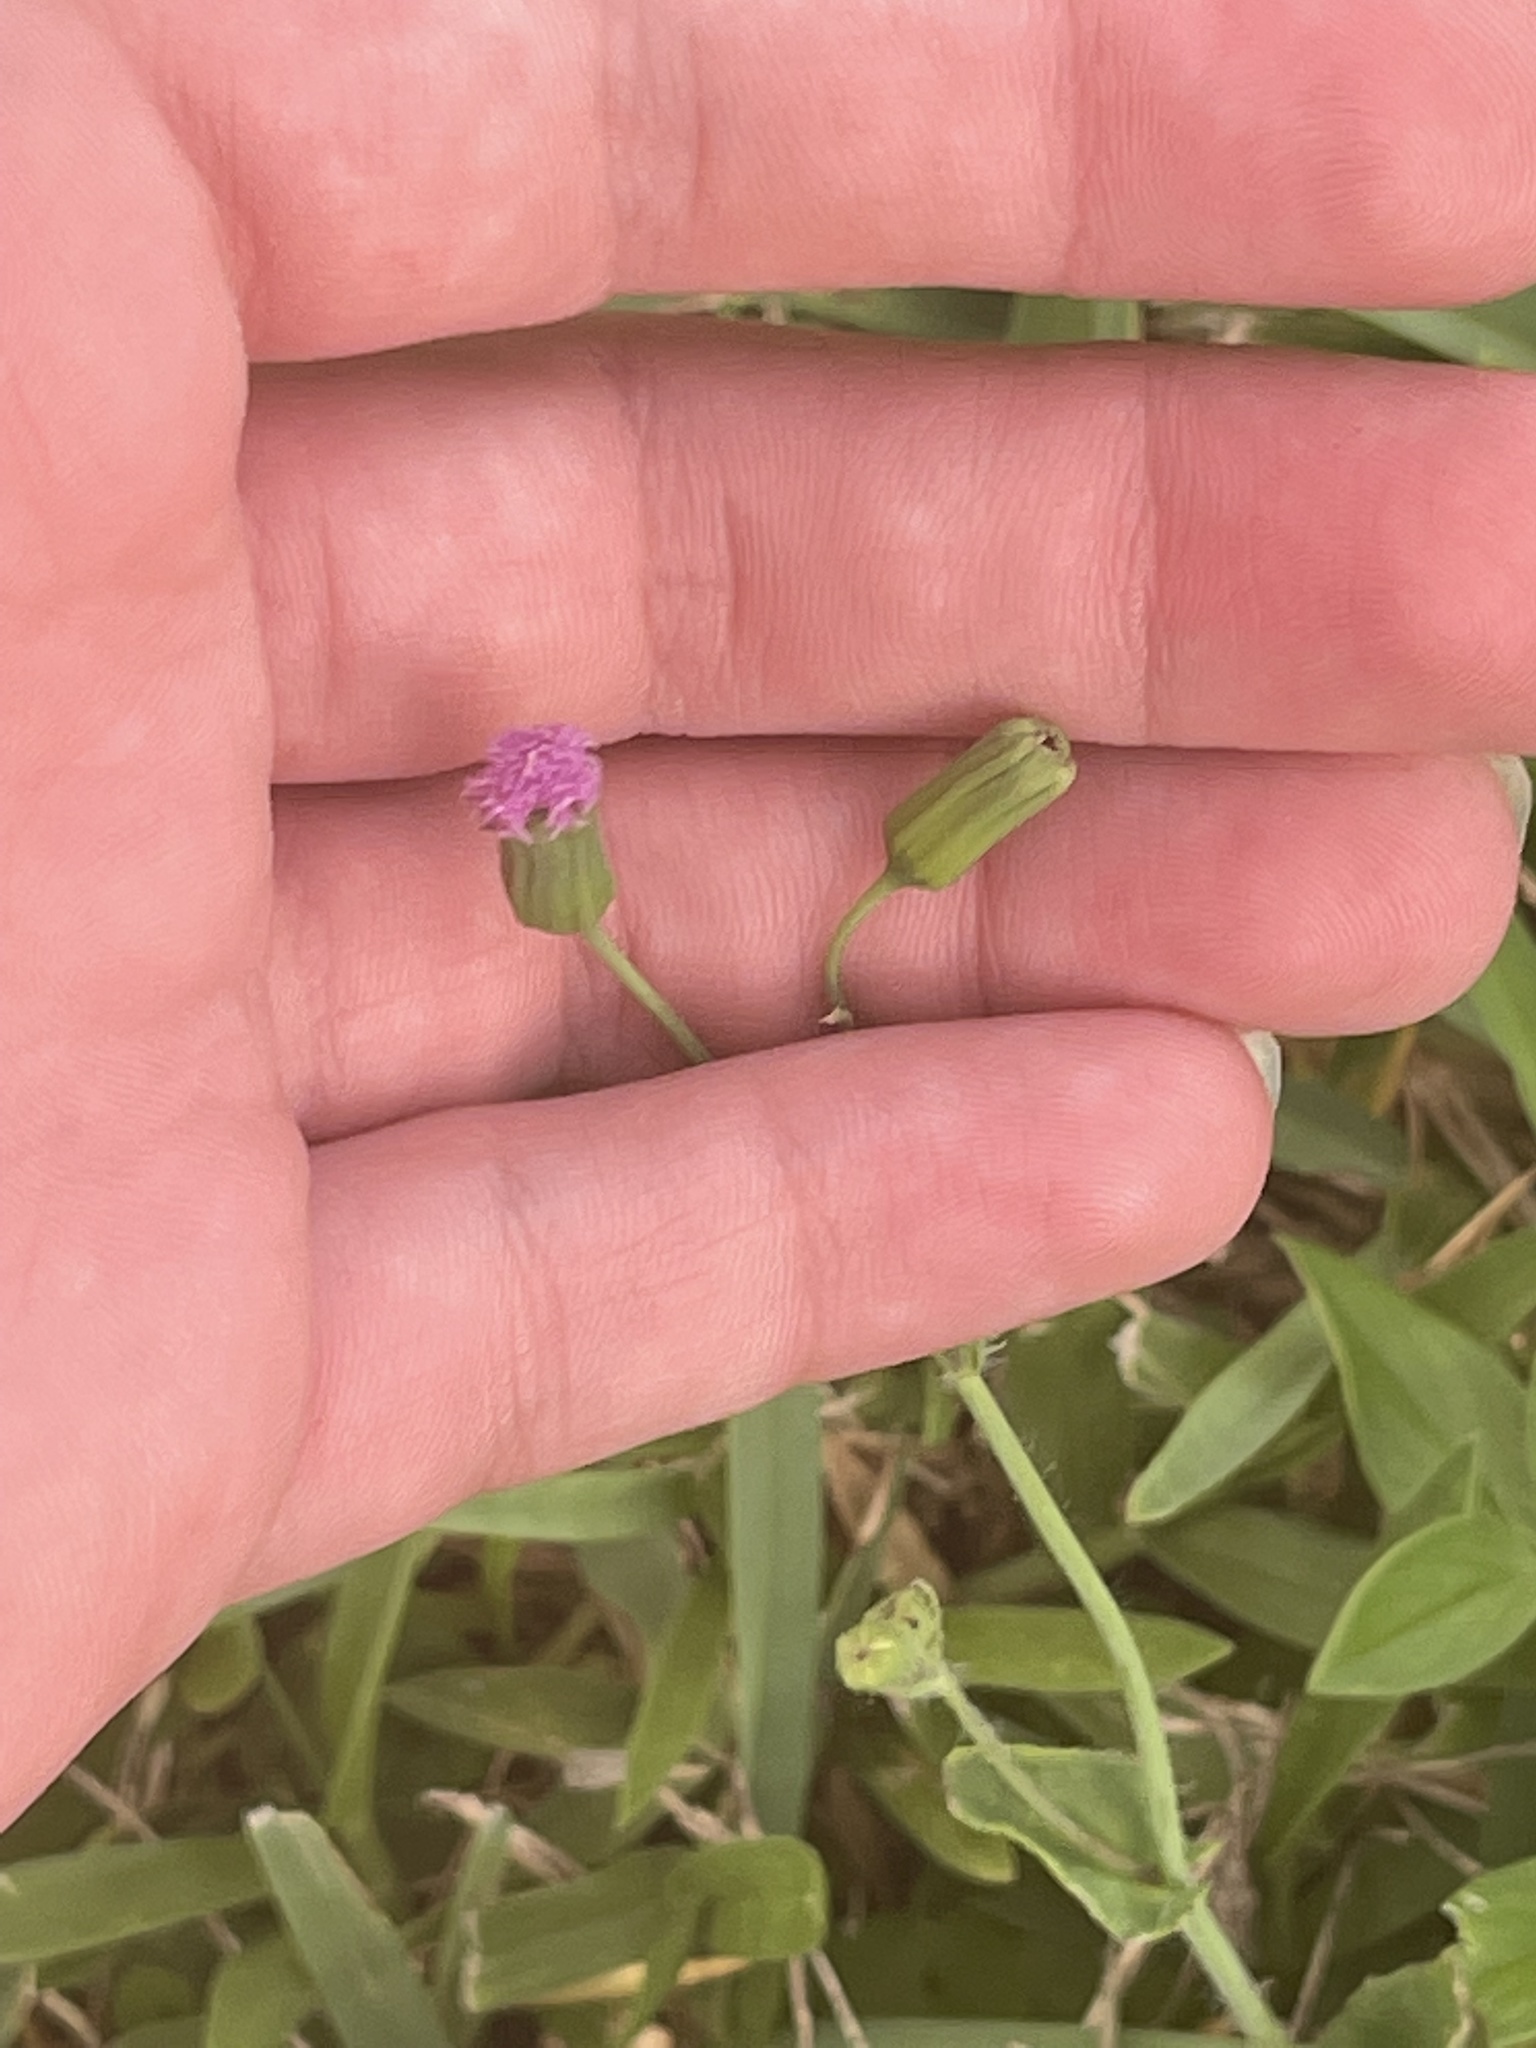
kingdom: Plantae
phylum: Tracheophyta
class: Magnoliopsida
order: Asterales
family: Asteraceae
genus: Emilia
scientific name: Emilia sonchifolia
